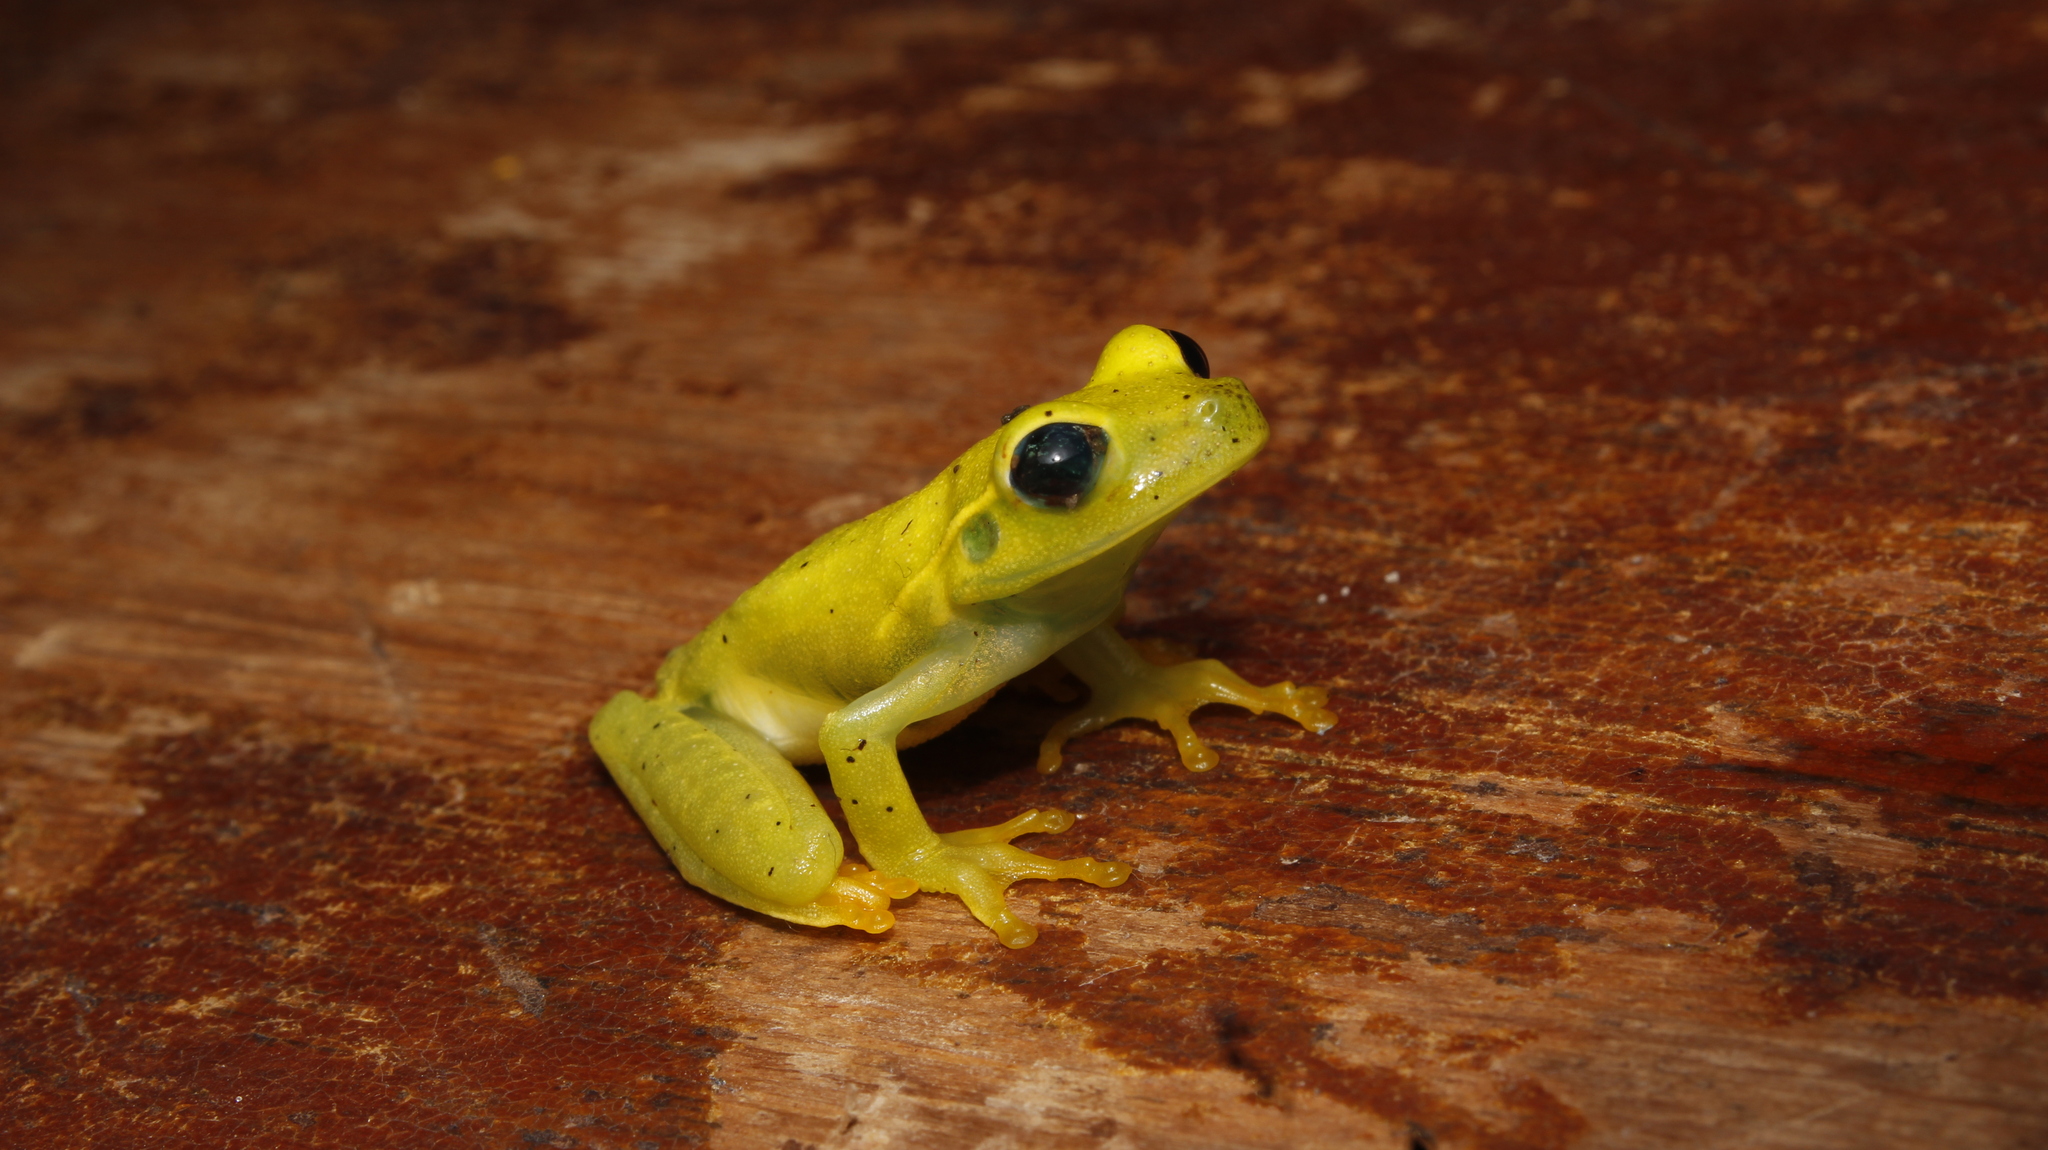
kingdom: Animalia
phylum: Chordata
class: Amphibia
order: Anura
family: Hylidae
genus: Boana
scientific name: Boana albomarginata
